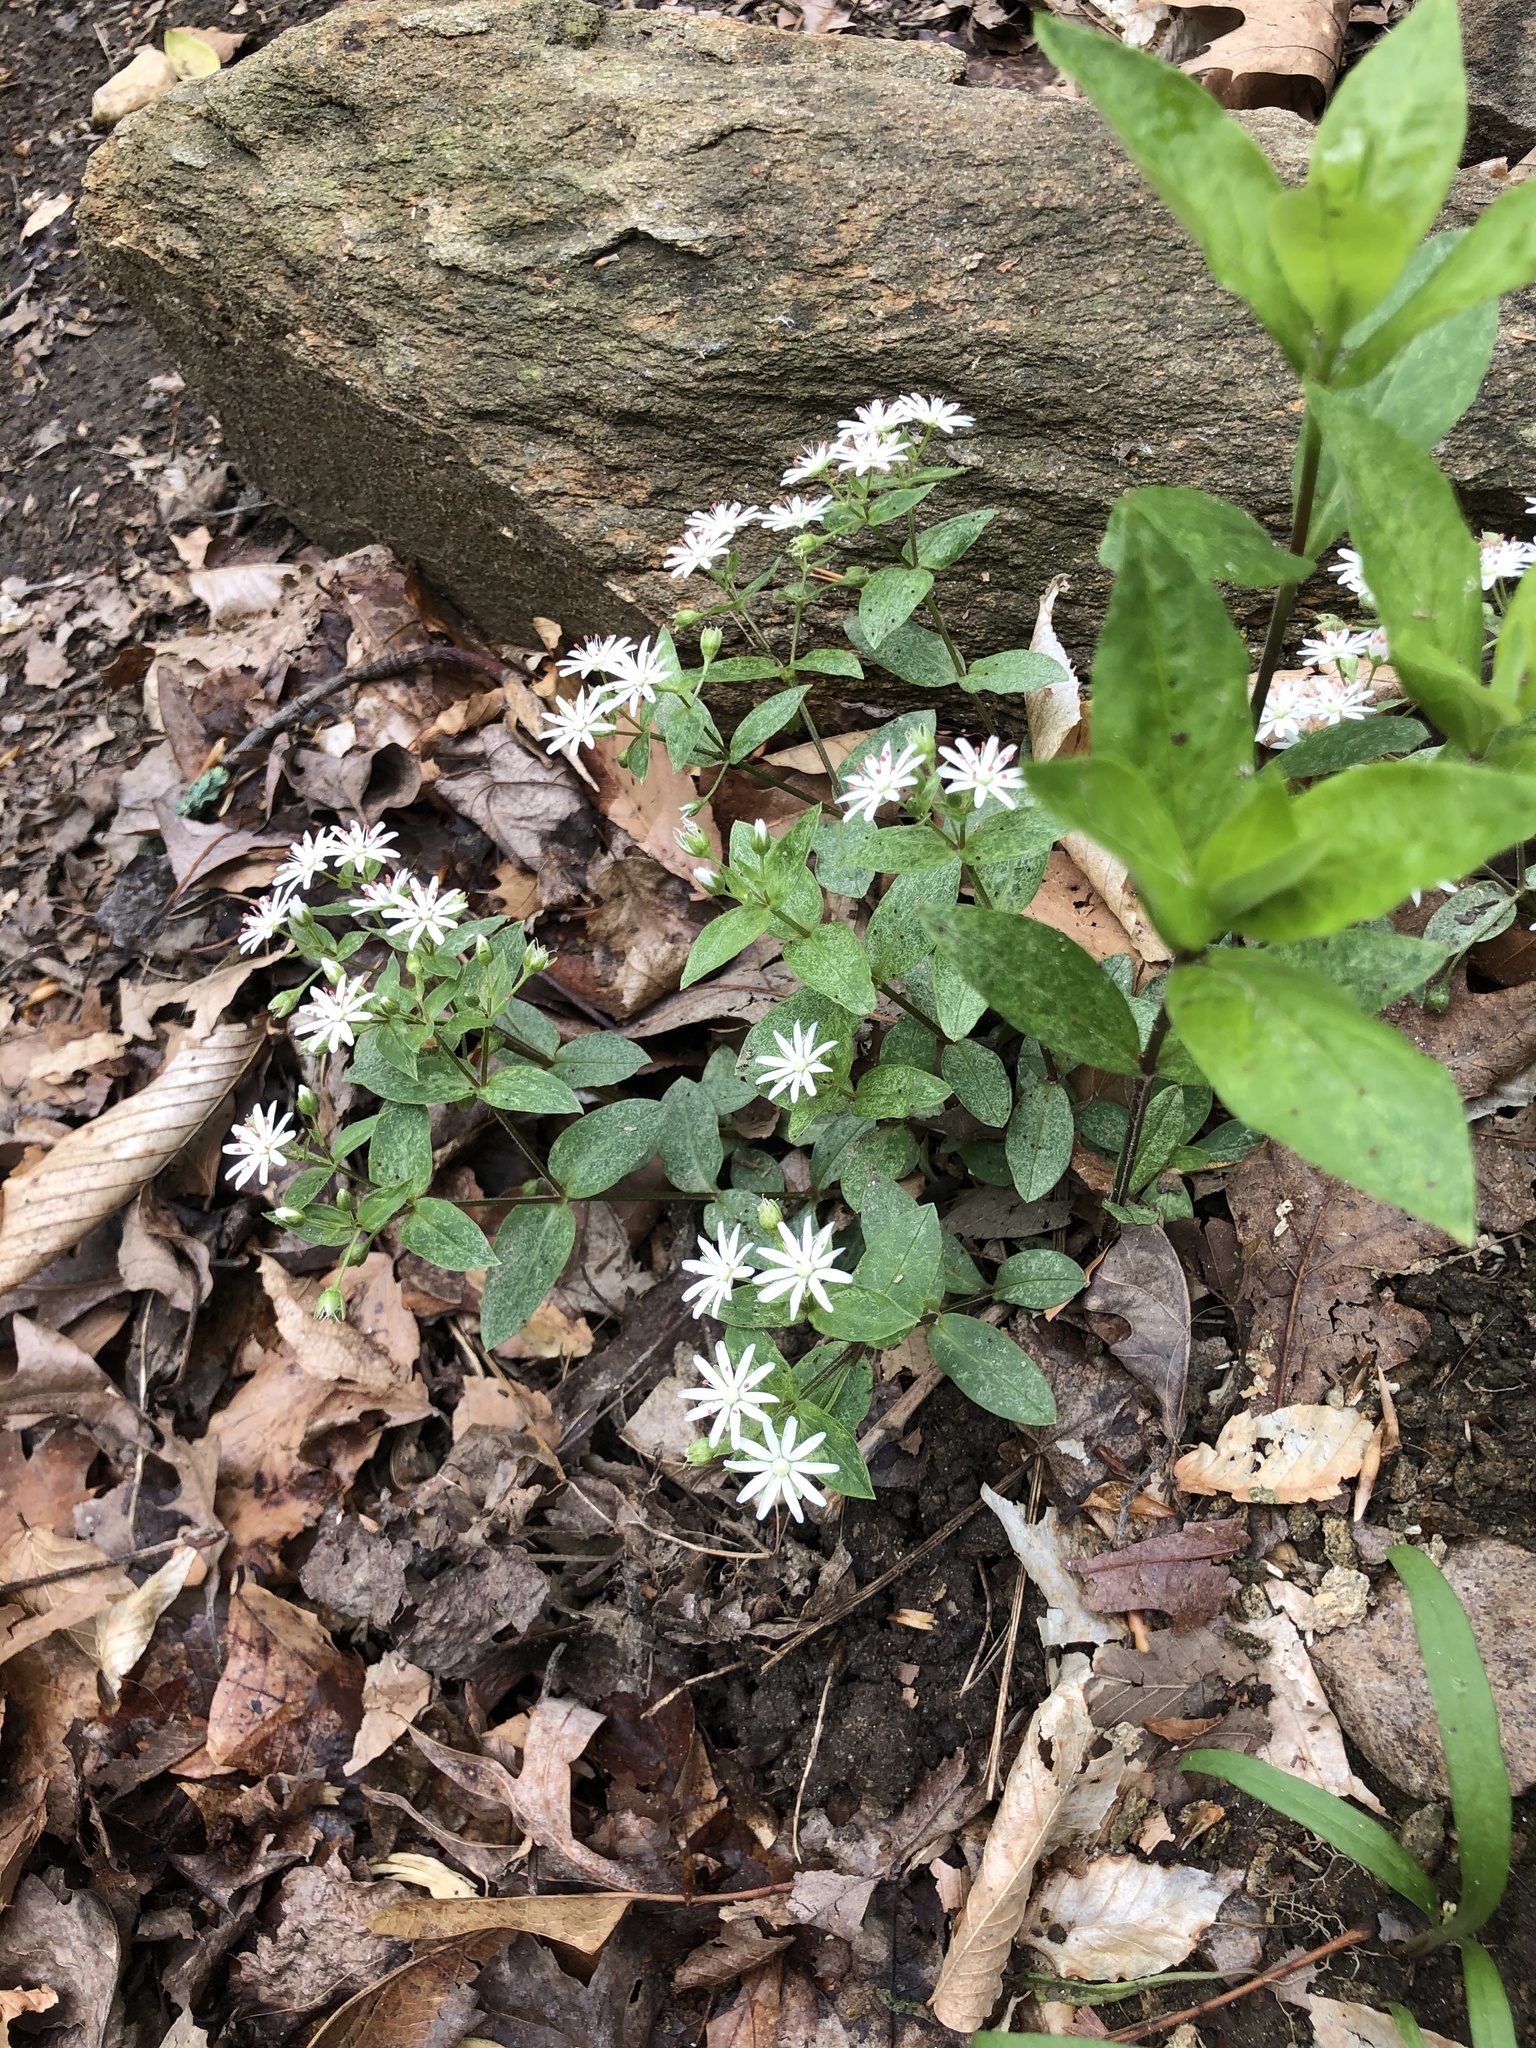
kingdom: Plantae
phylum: Tracheophyta
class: Magnoliopsida
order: Caryophyllales
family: Caryophyllaceae
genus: Stellaria
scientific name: Stellaria pubera
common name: Star chickweed
